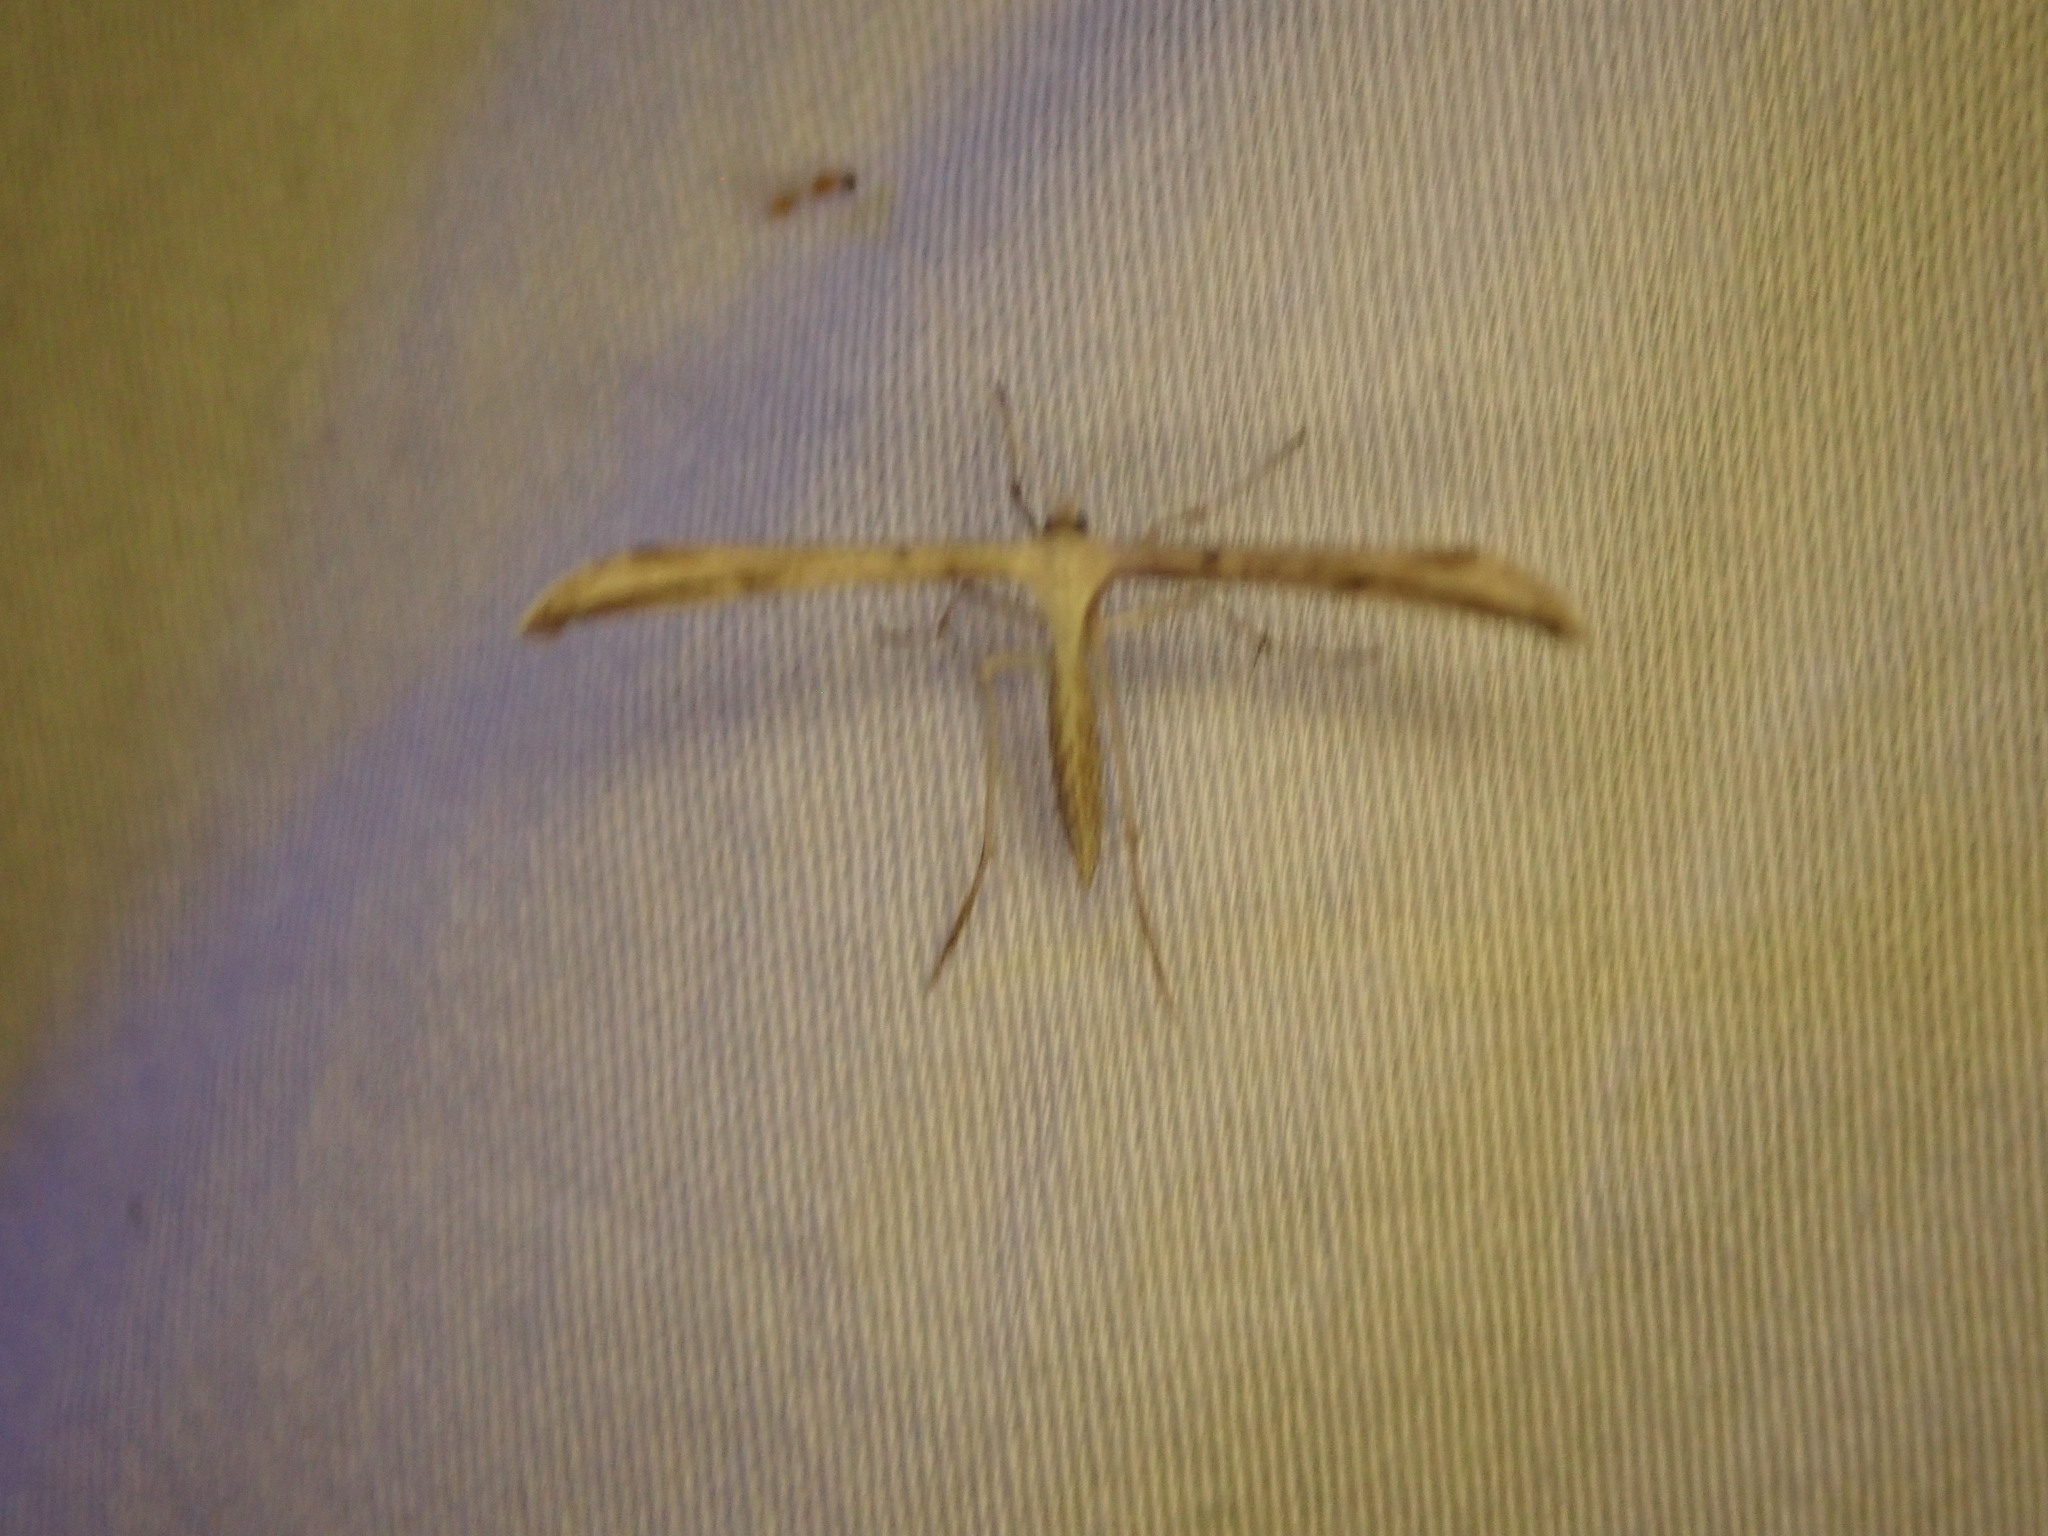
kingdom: Animalia
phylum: Arthropoda
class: Insecta
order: Lepidoptera
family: Pterophoridae
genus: Emmelina
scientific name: Emmelina monodactyla
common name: Common plume
